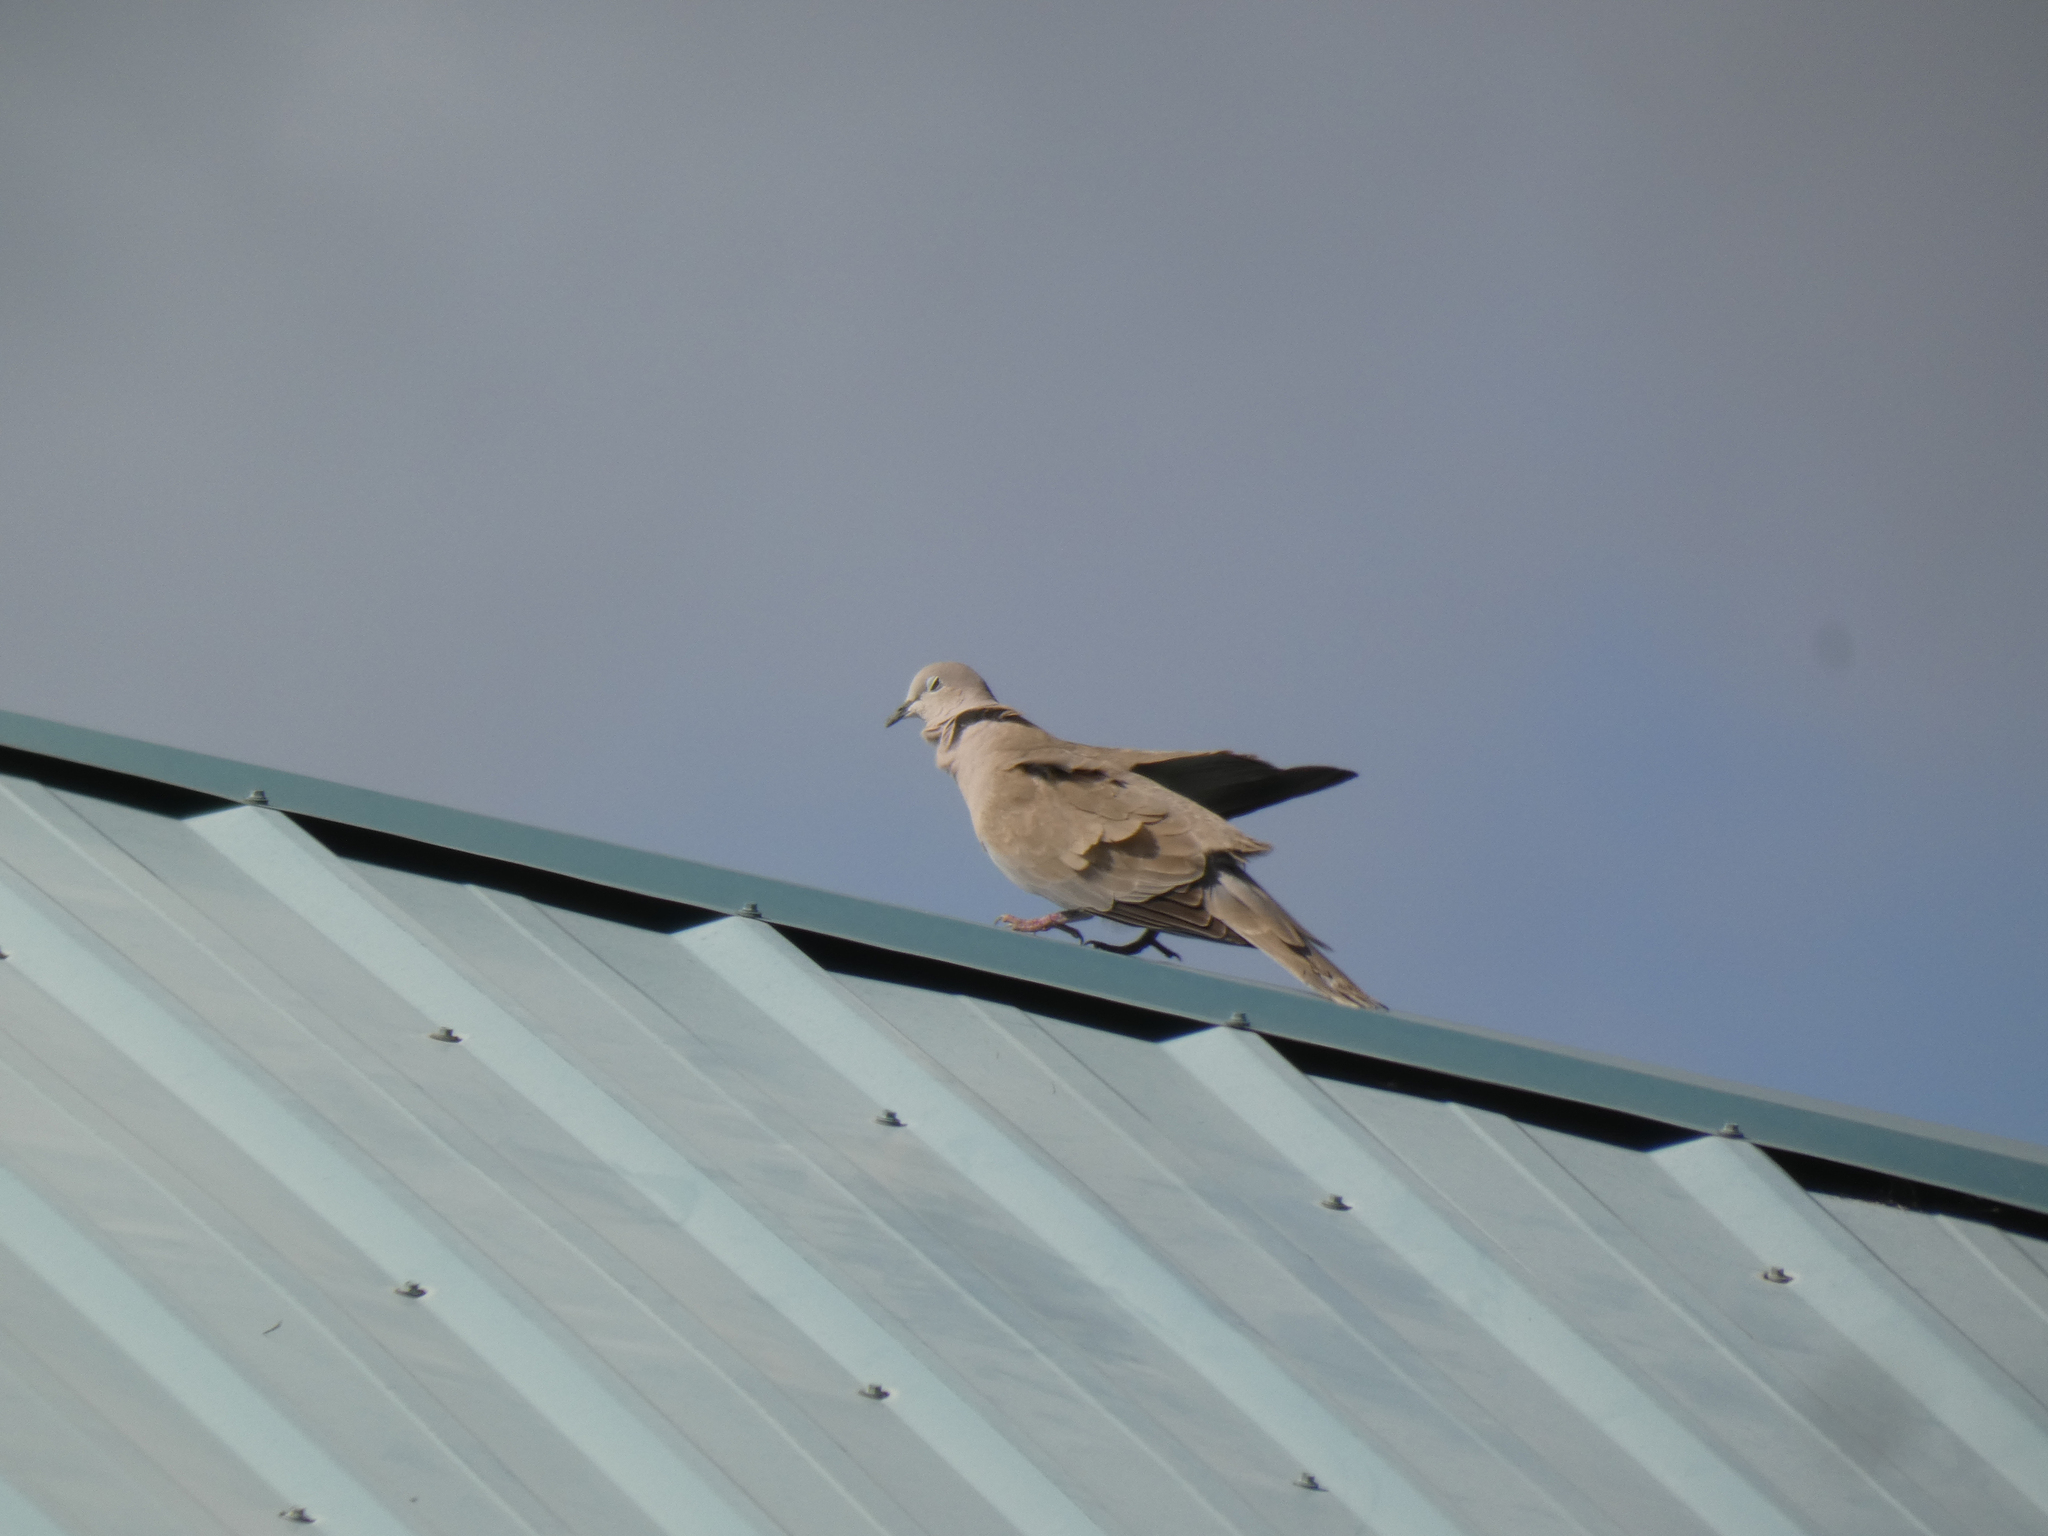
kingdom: Animalia
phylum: Chordata
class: Aves
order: Columbiformes
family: Columbidae
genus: Streptopelia
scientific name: Streptopelia decaocto
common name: Eurasian collared dove
